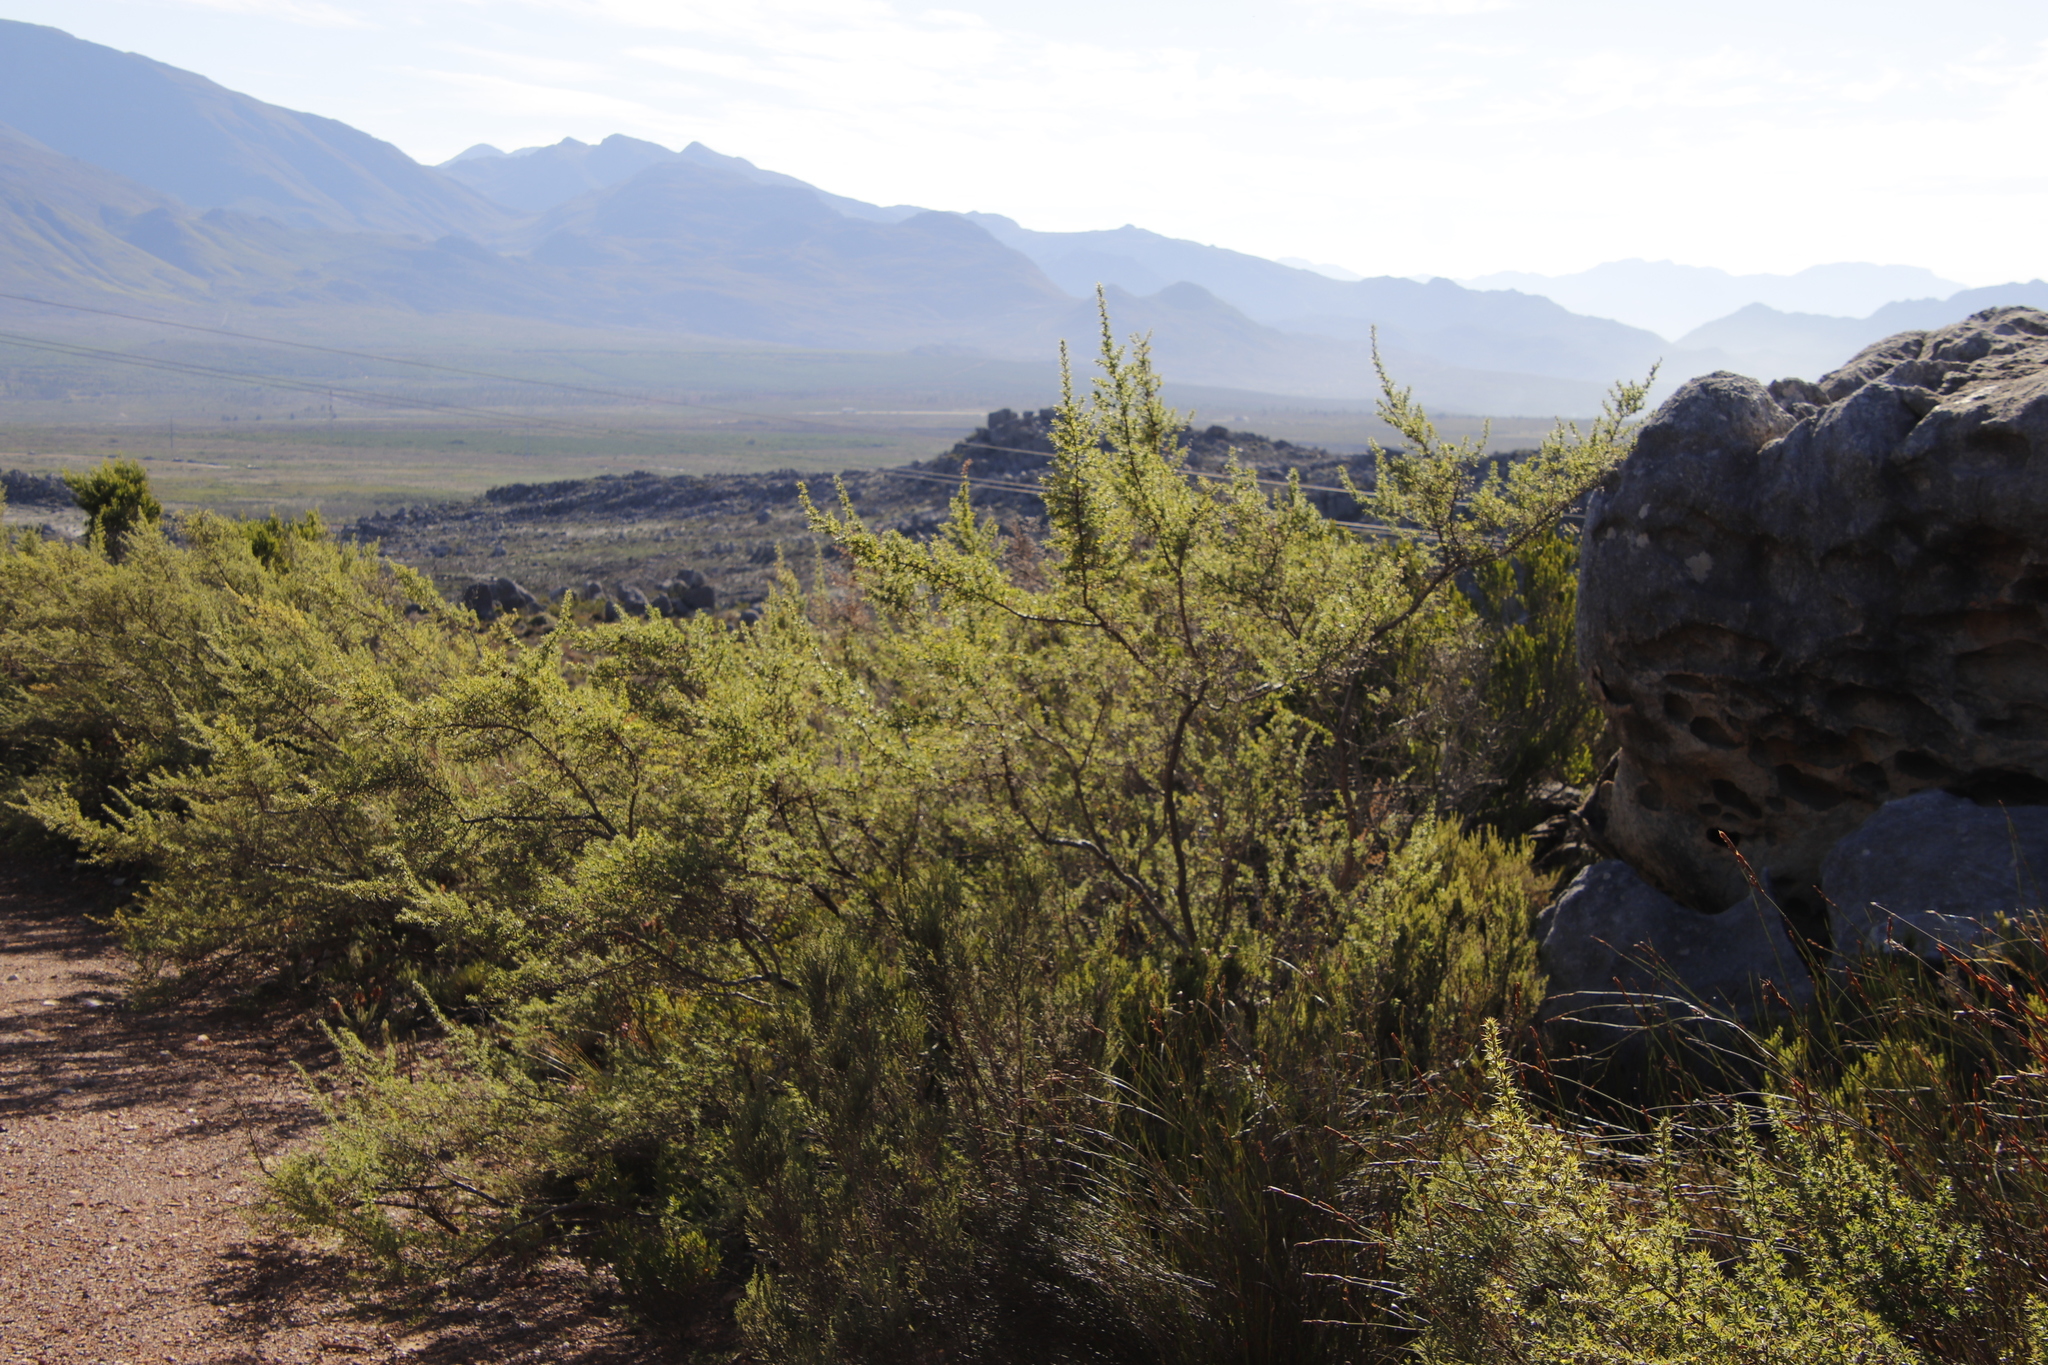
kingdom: Plantae
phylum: Tracheophyta
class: Magnoliopsida
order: Rosales
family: Rosaceae
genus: Cliffortia
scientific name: Cliffortia ruscifolia
